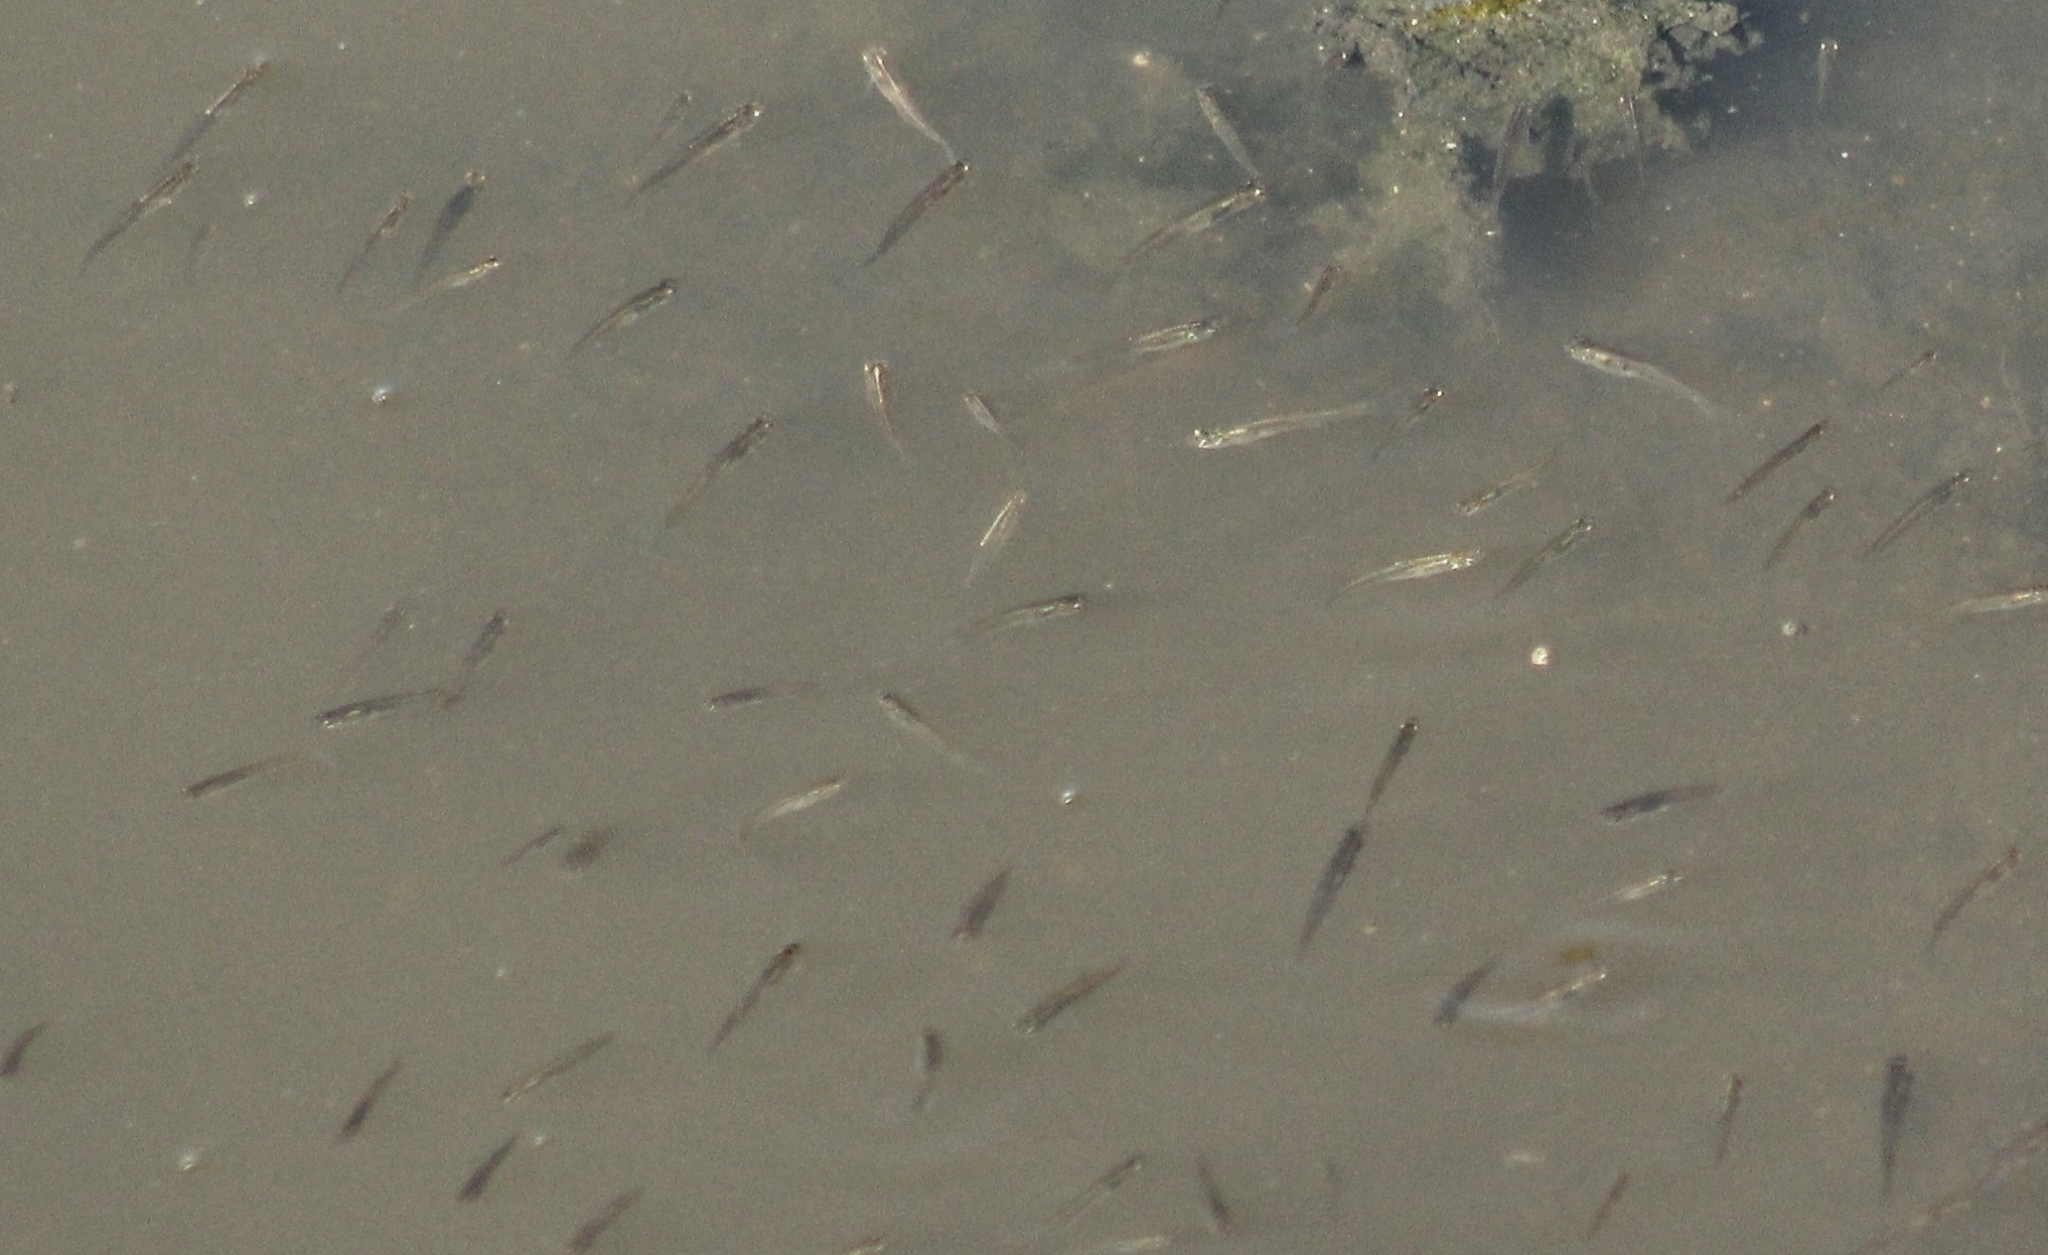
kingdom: Animalia
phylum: Chordata
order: Cyprinodontiformes
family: Poeciliidae
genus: Cnesterodon
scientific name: Cnesterodon decemmaculatus
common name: Ten spotted live-bearer
